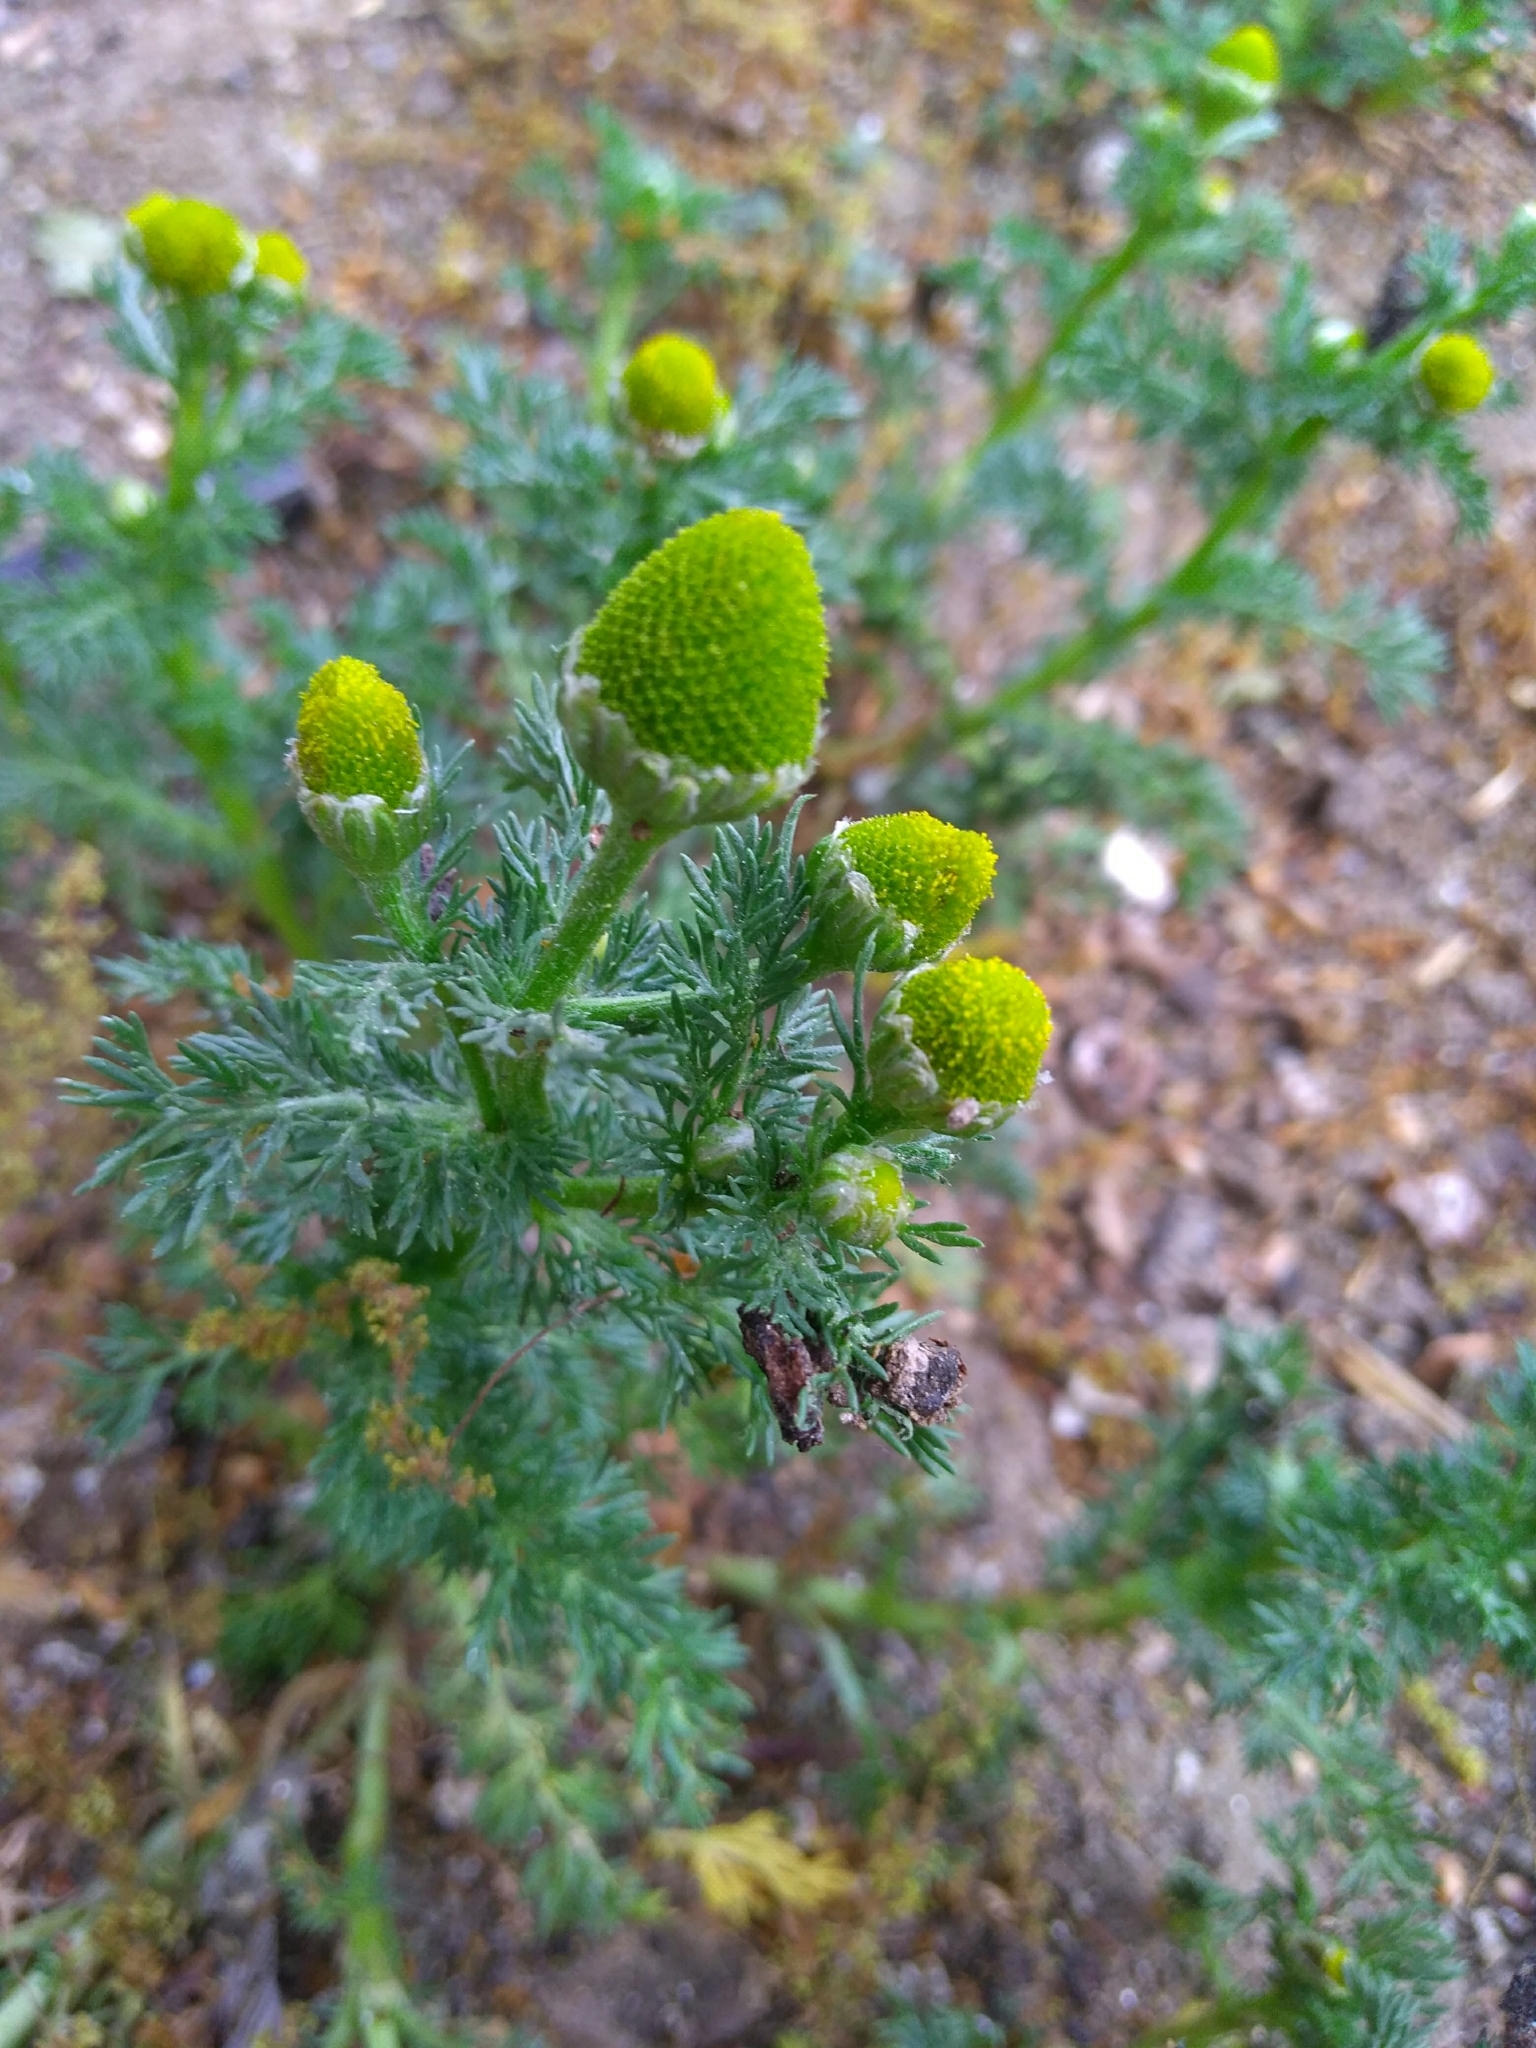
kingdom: Plantae
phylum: Tracheophyta
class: Magnoliopsida
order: Asterales
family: Asteraceae
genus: Matricaria
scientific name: Matricaria discoidea
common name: Disc mayweed
